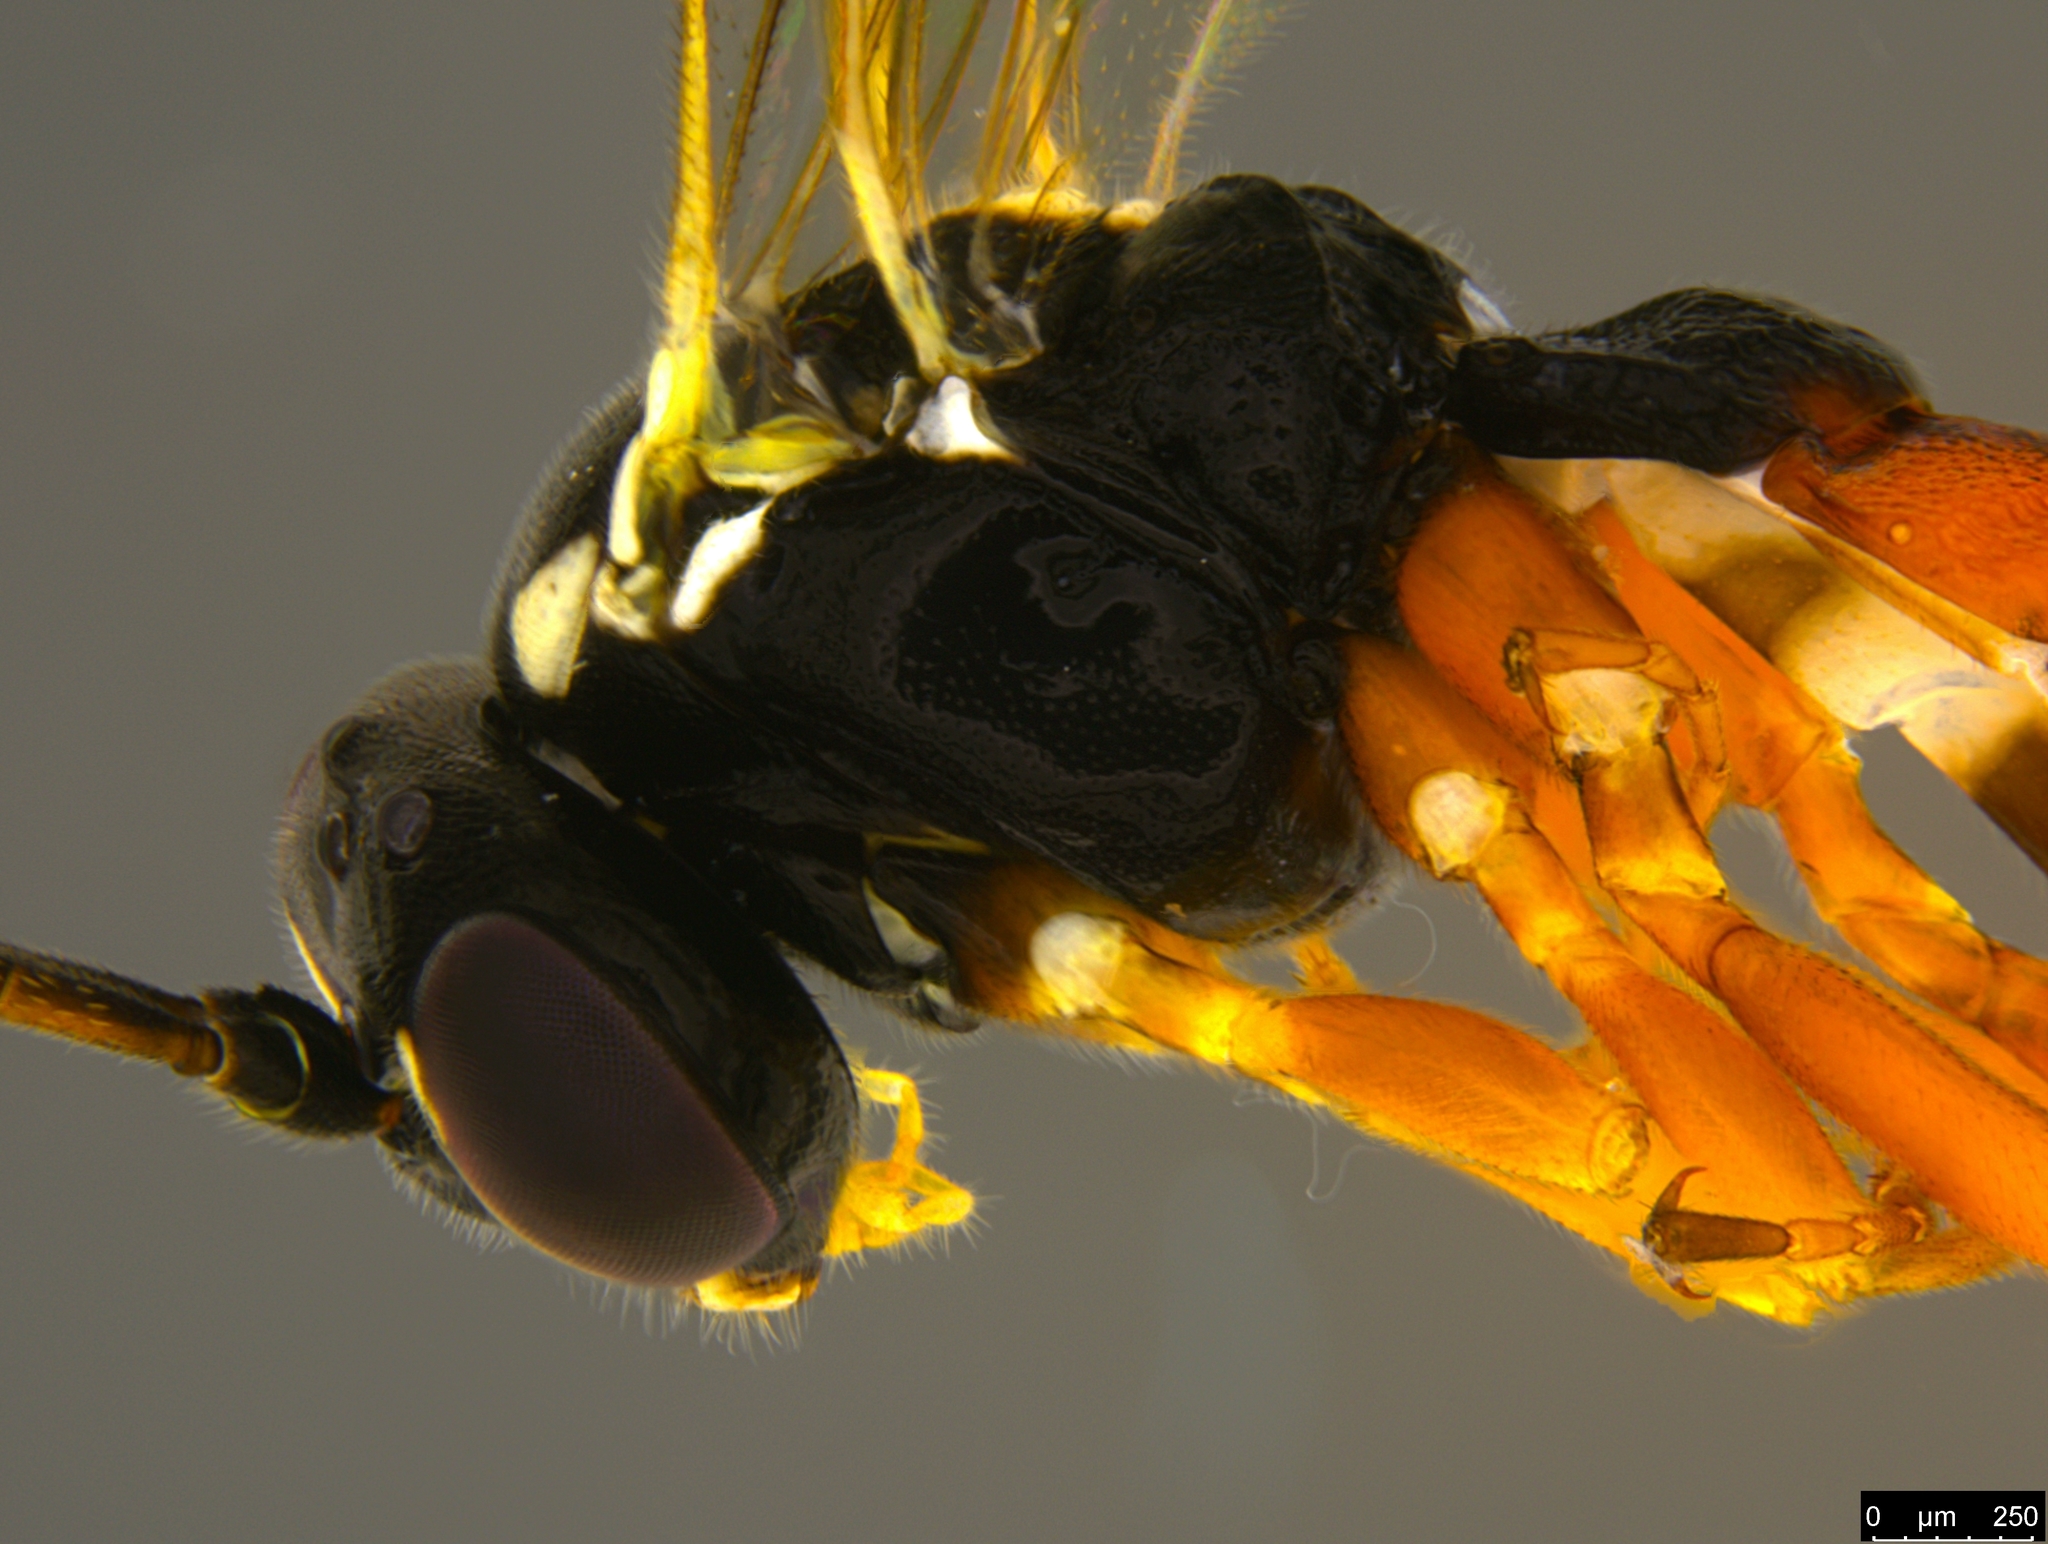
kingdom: Animalia
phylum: Arthropoda
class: Insecta
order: Hymenoptera
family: Ichneumonidae
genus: Diplazon
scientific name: Diplazon laetatorius
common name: Parasitoid wasp
